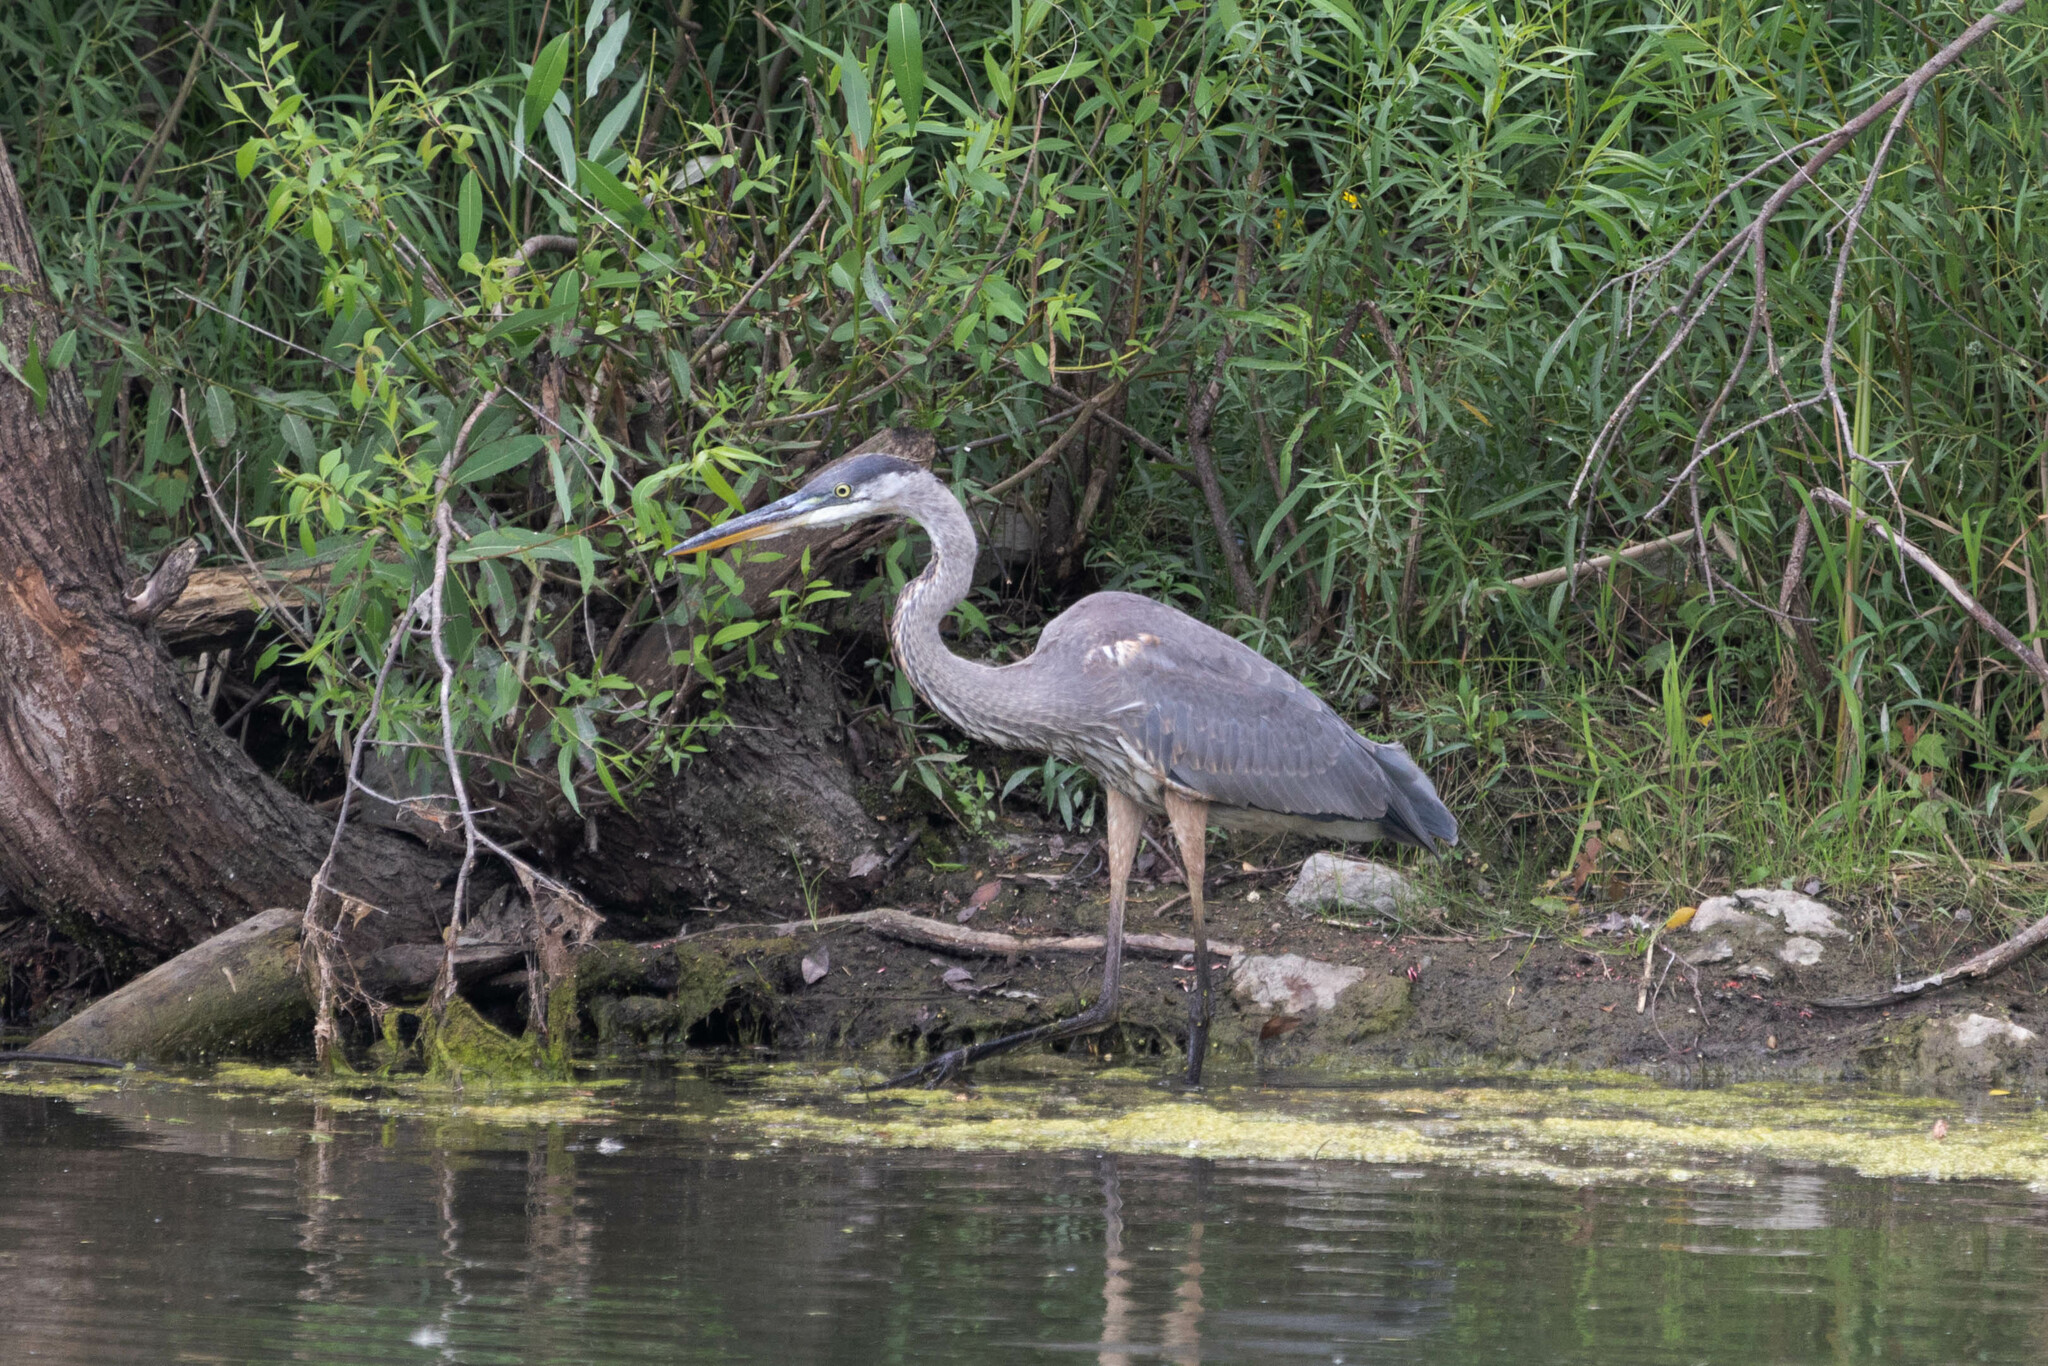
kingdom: Animalia
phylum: Chordata
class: Aves
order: Pelecaniformes
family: Ardeidae
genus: Ardea
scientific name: Ardea herodias
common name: Great blue heron
